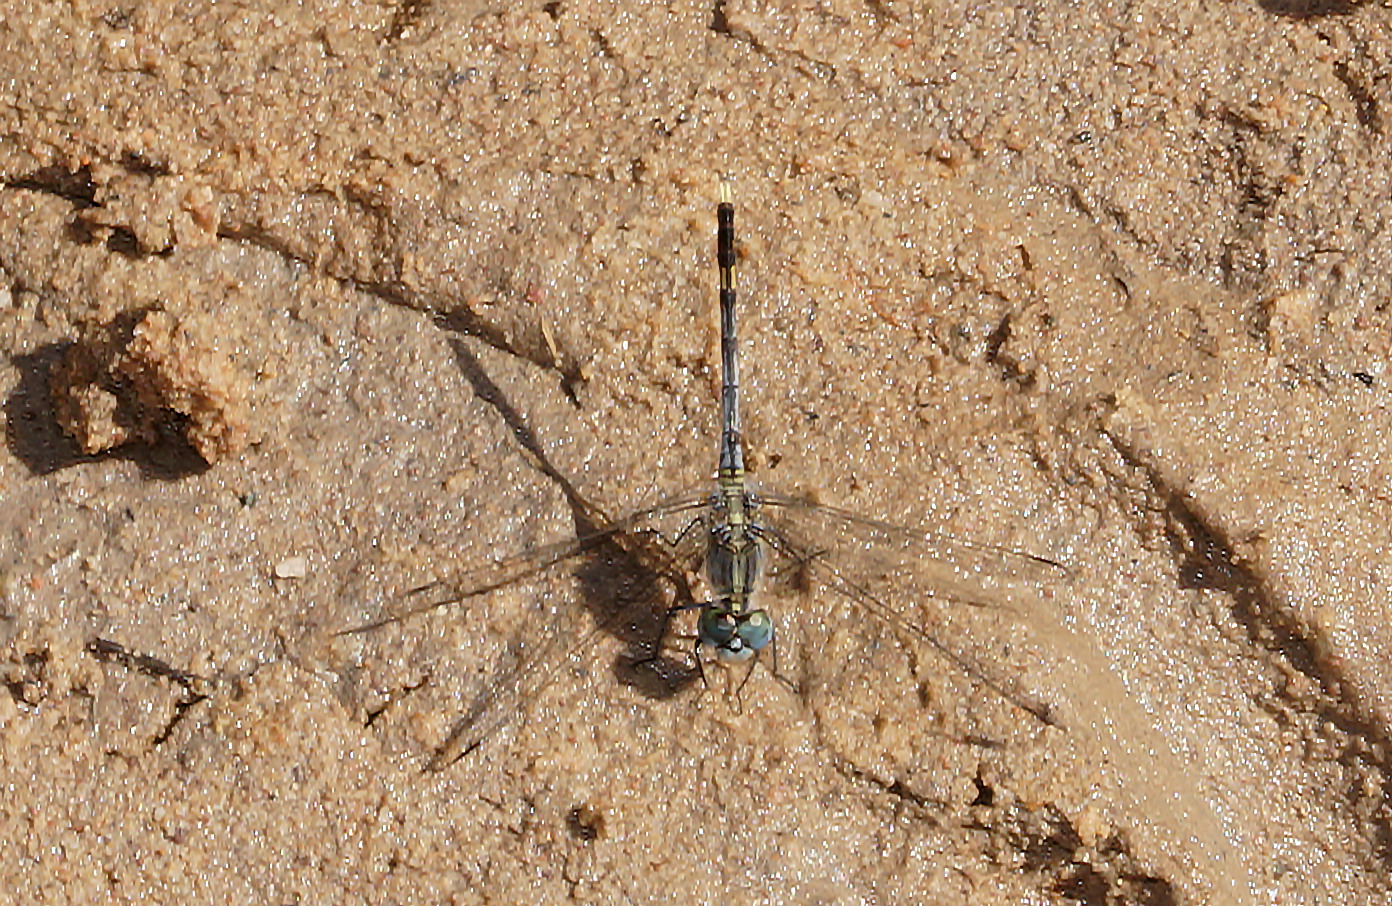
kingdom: Animalia
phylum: Arthropoda
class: Insecta
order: Odonata
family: Libellulidae
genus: Diplacodes
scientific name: Diplacodes trivialis
